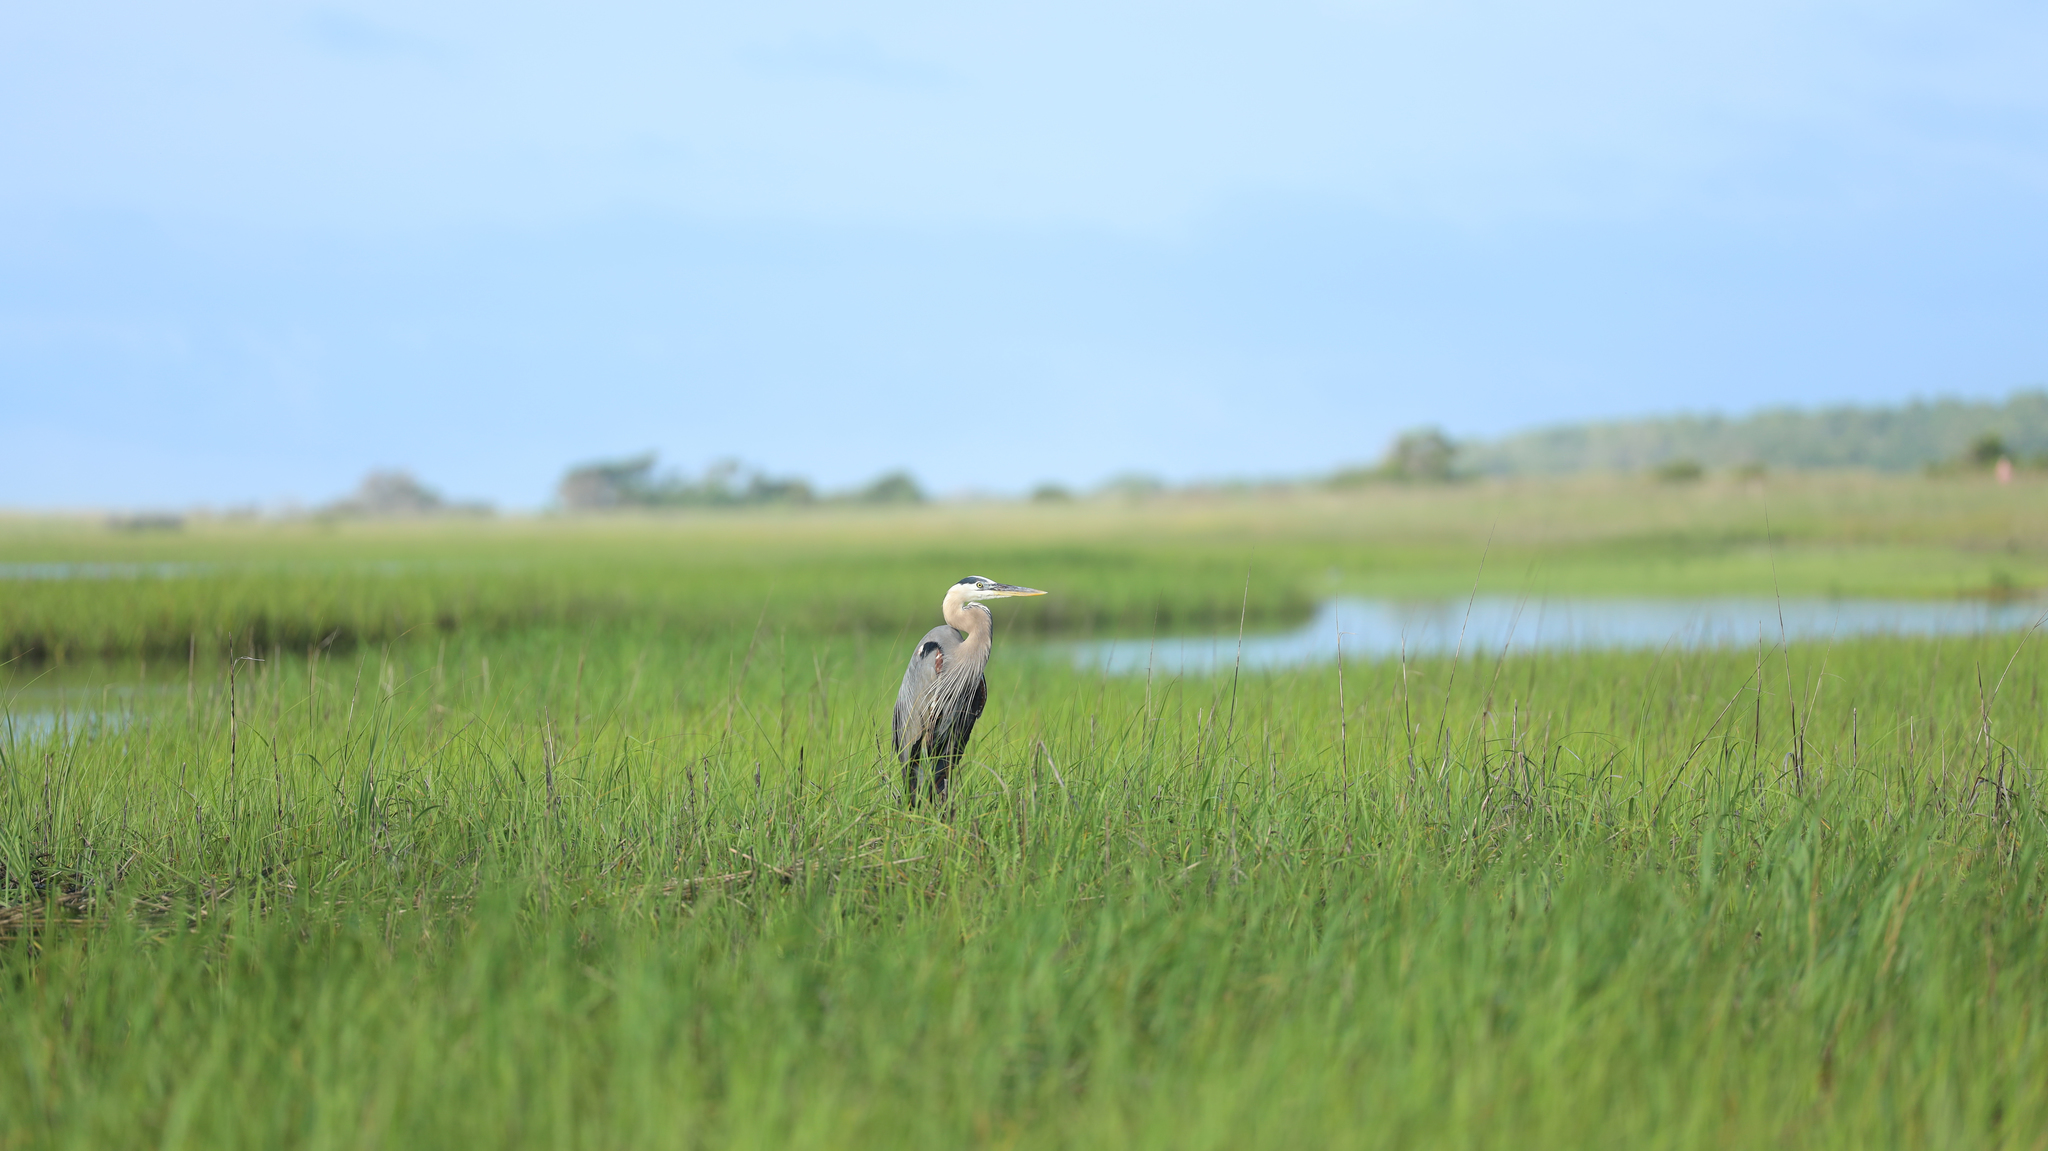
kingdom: Animalia
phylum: Chordata
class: Aves
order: Pelecaniformes
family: Ardeidae
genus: Ardea
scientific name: Ardea herodias
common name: Great blue heron
